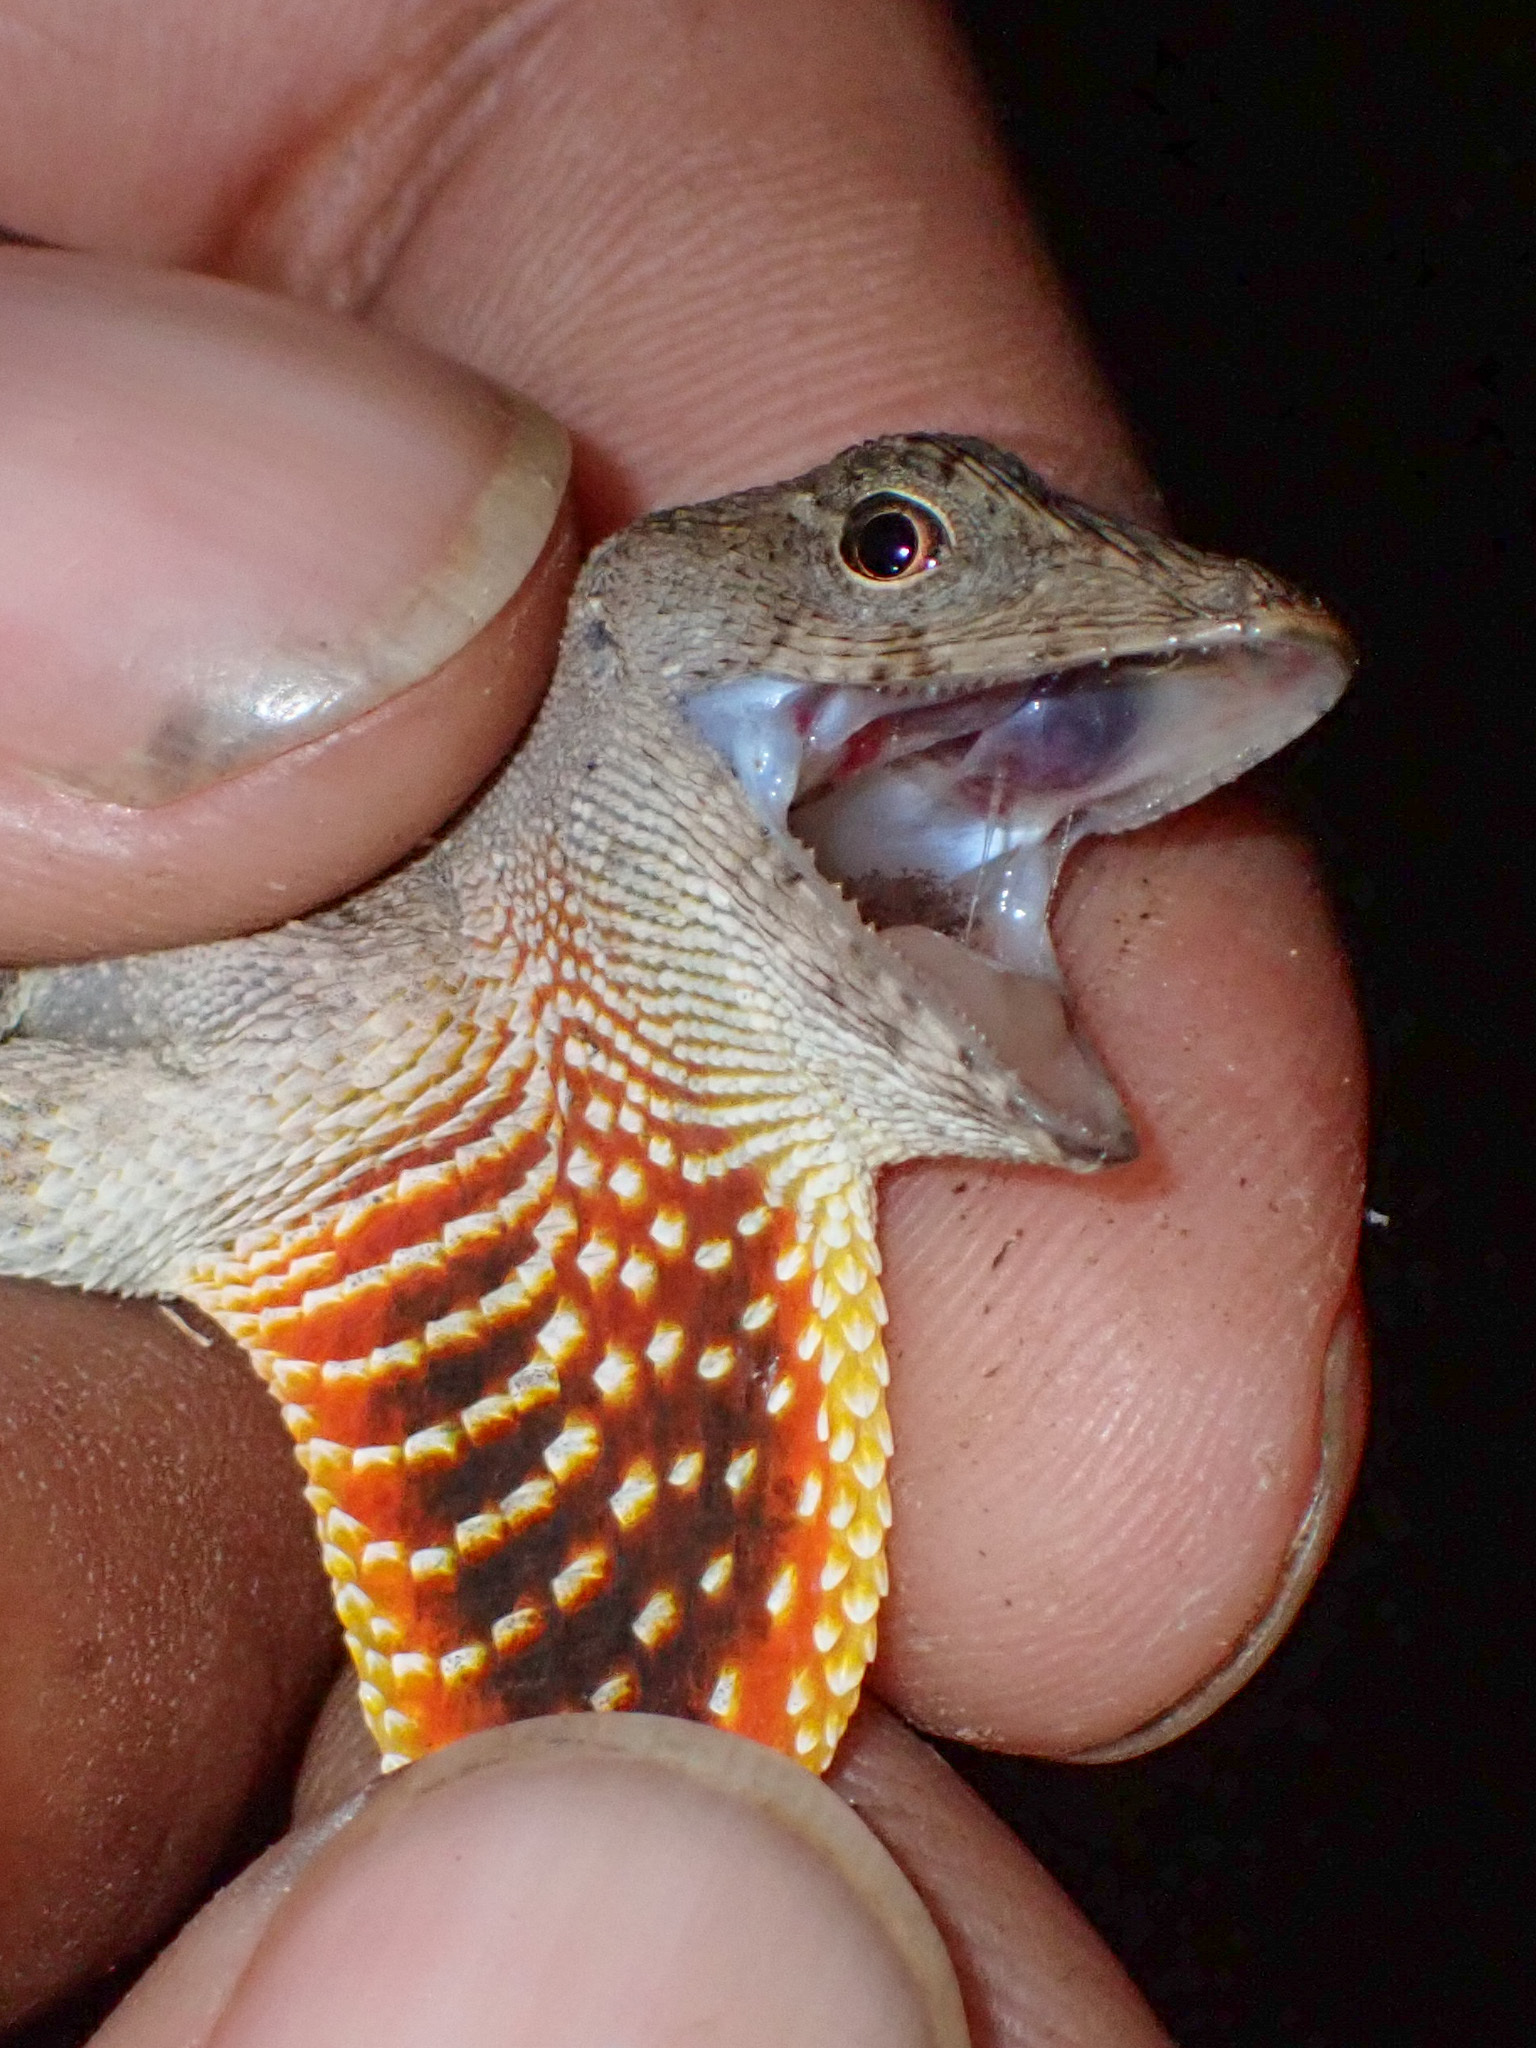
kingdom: Animalia
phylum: Chordata
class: Squamata
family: Dactyloidae
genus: Anolis
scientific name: Anolis sagrei
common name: Brown anole
